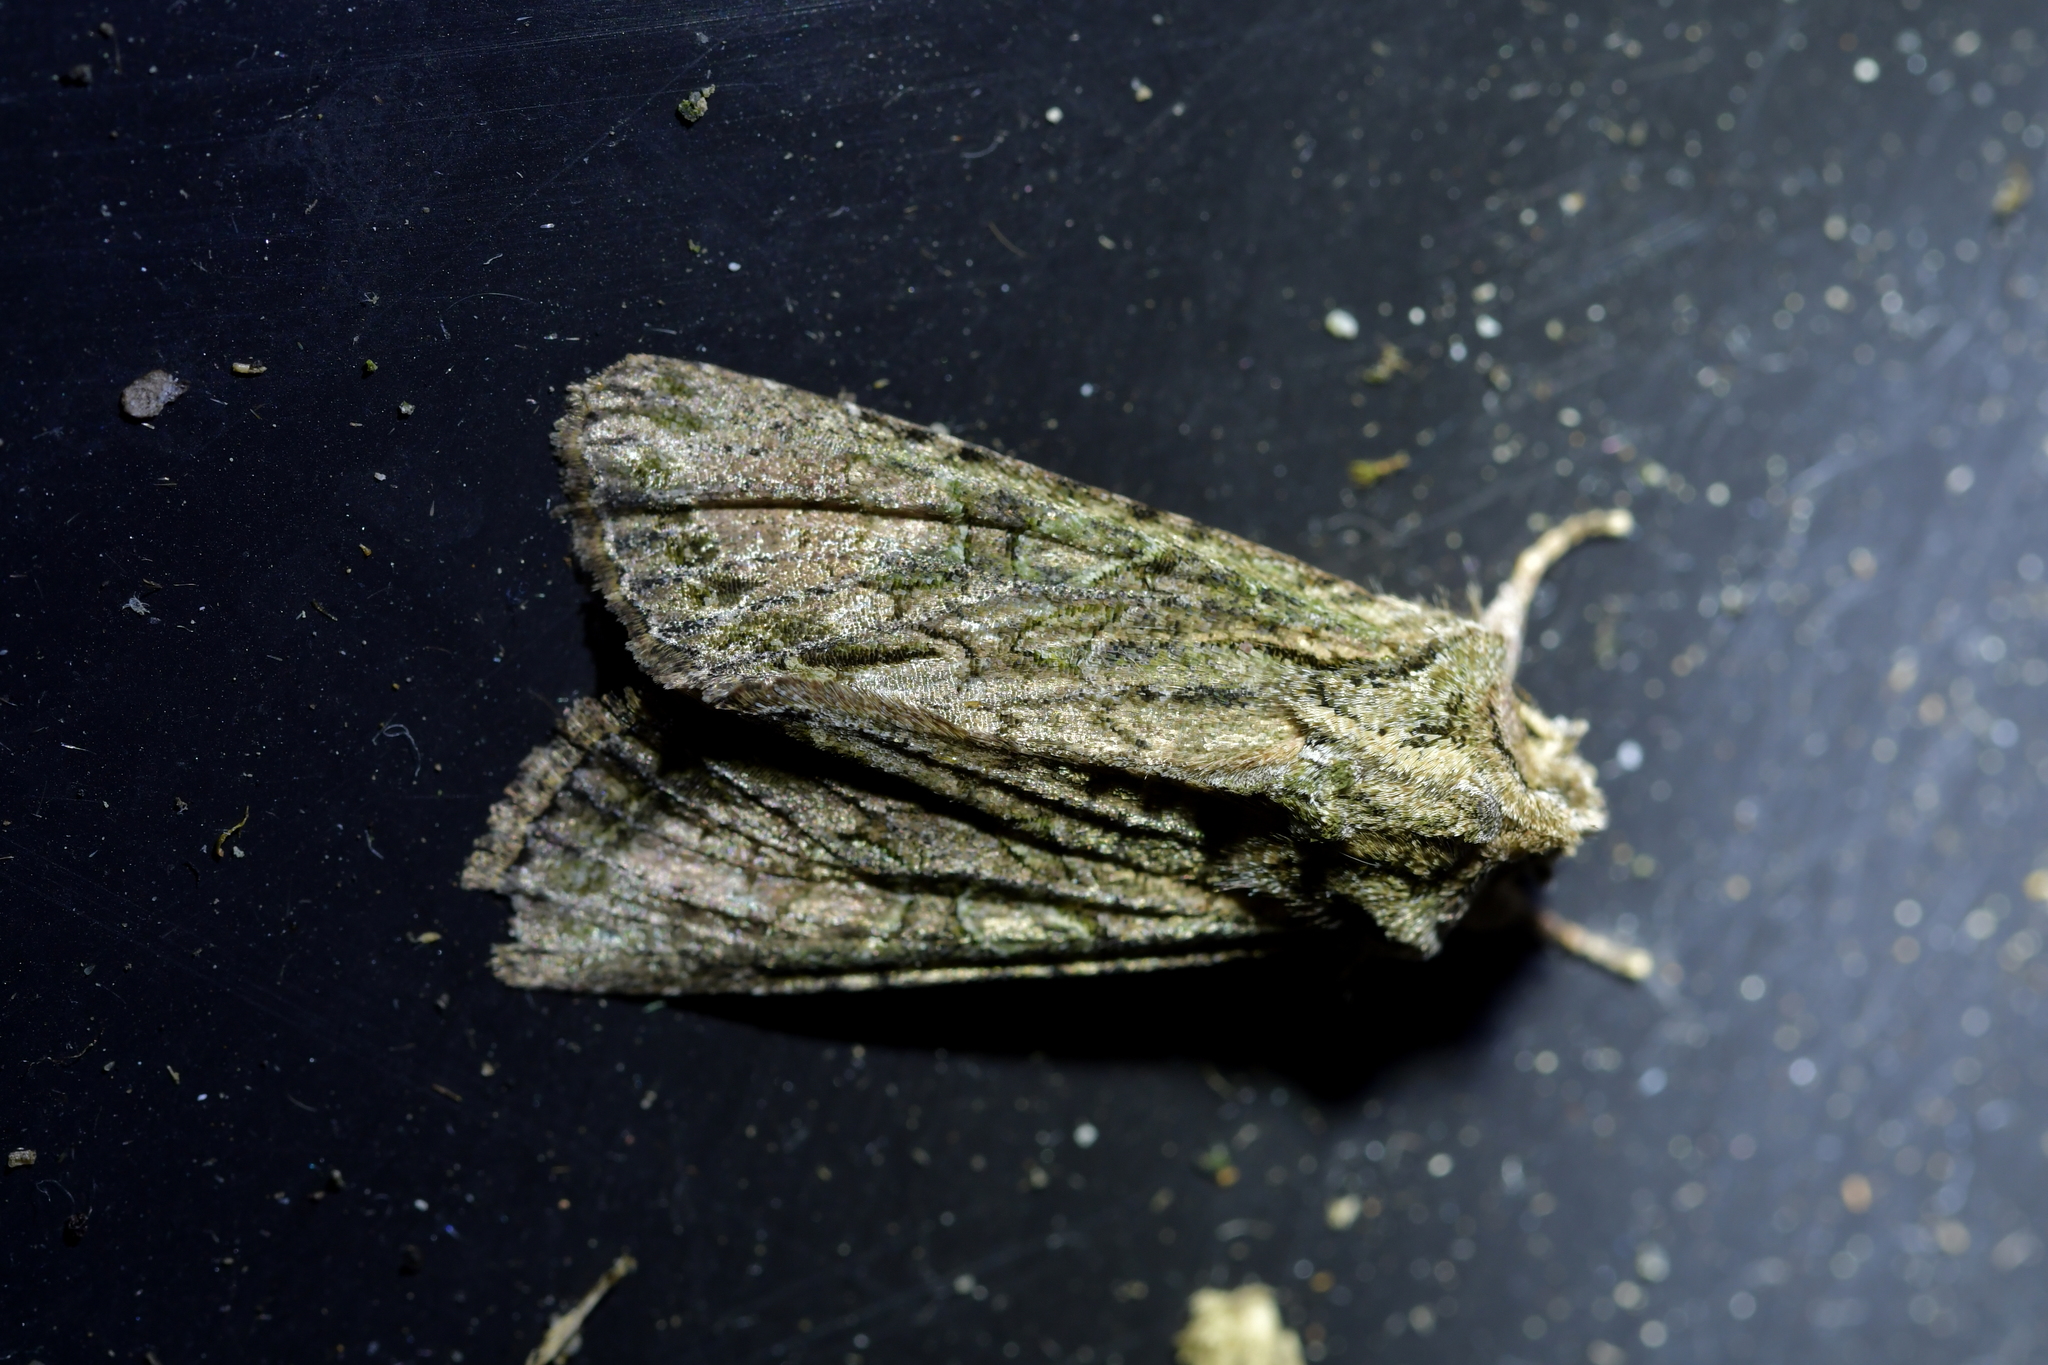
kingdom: Animalia
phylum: Arthropoda
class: Insecta
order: Lepidoptera
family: Noctuidae
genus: Ichneutica
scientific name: Ichneutica mutans
